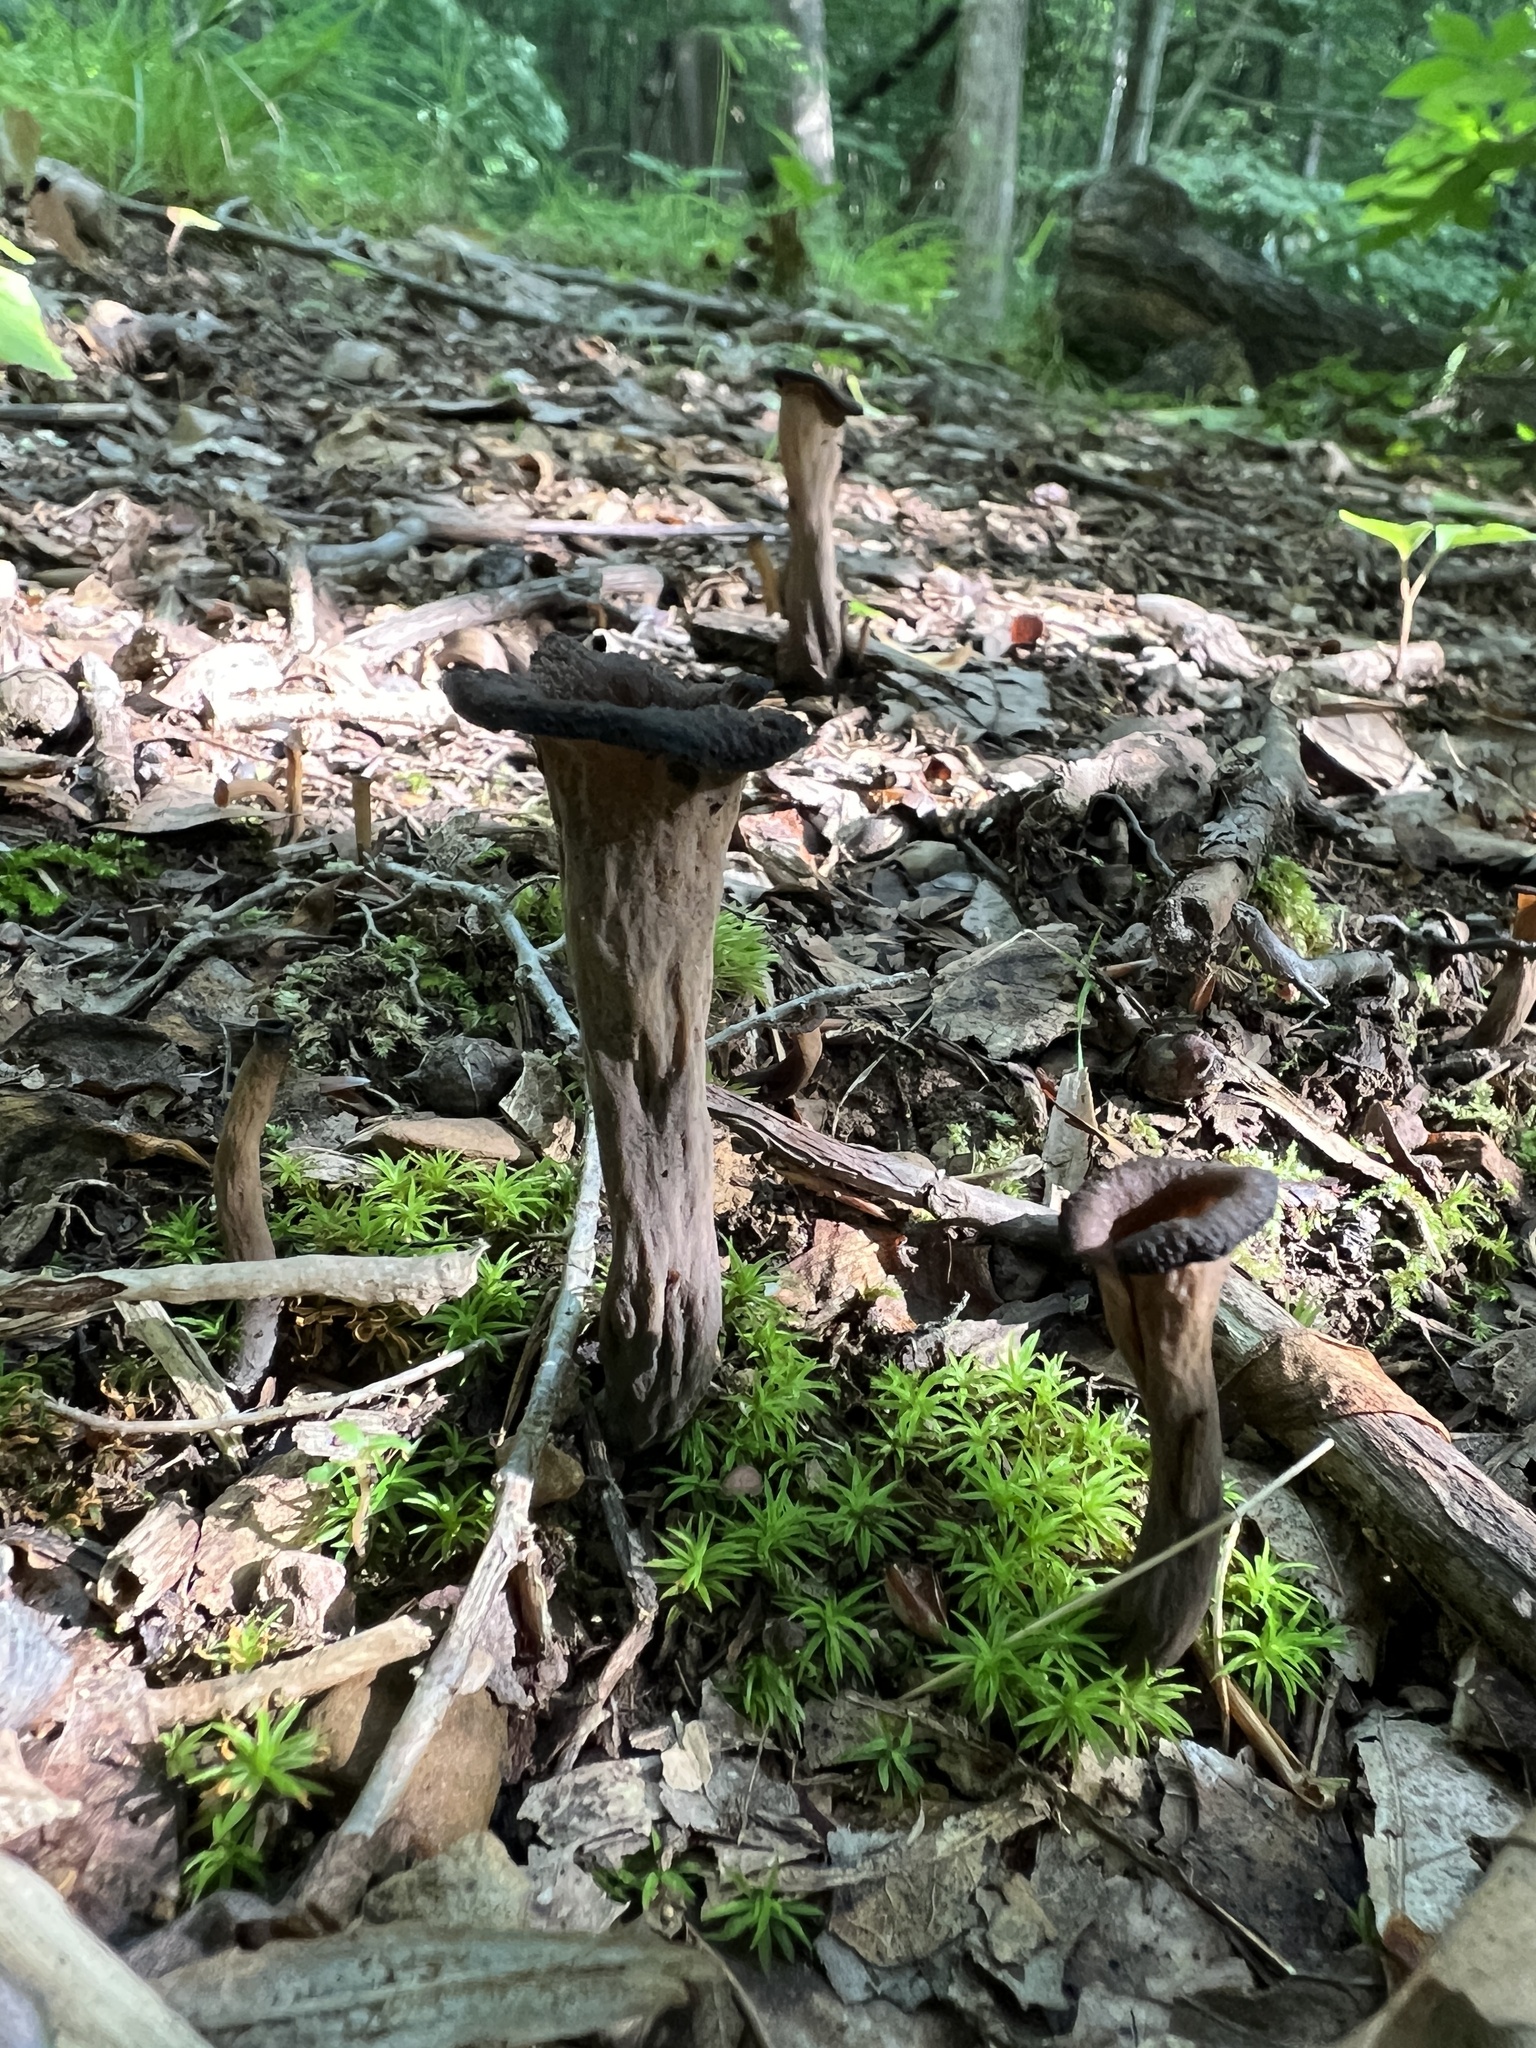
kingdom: Fungi
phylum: Basidiomycota
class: Agaricomycetes
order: Cantharellales
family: Hydnaceae
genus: Craterellus
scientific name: Craterellus cornucopioides
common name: Horn of plenty
